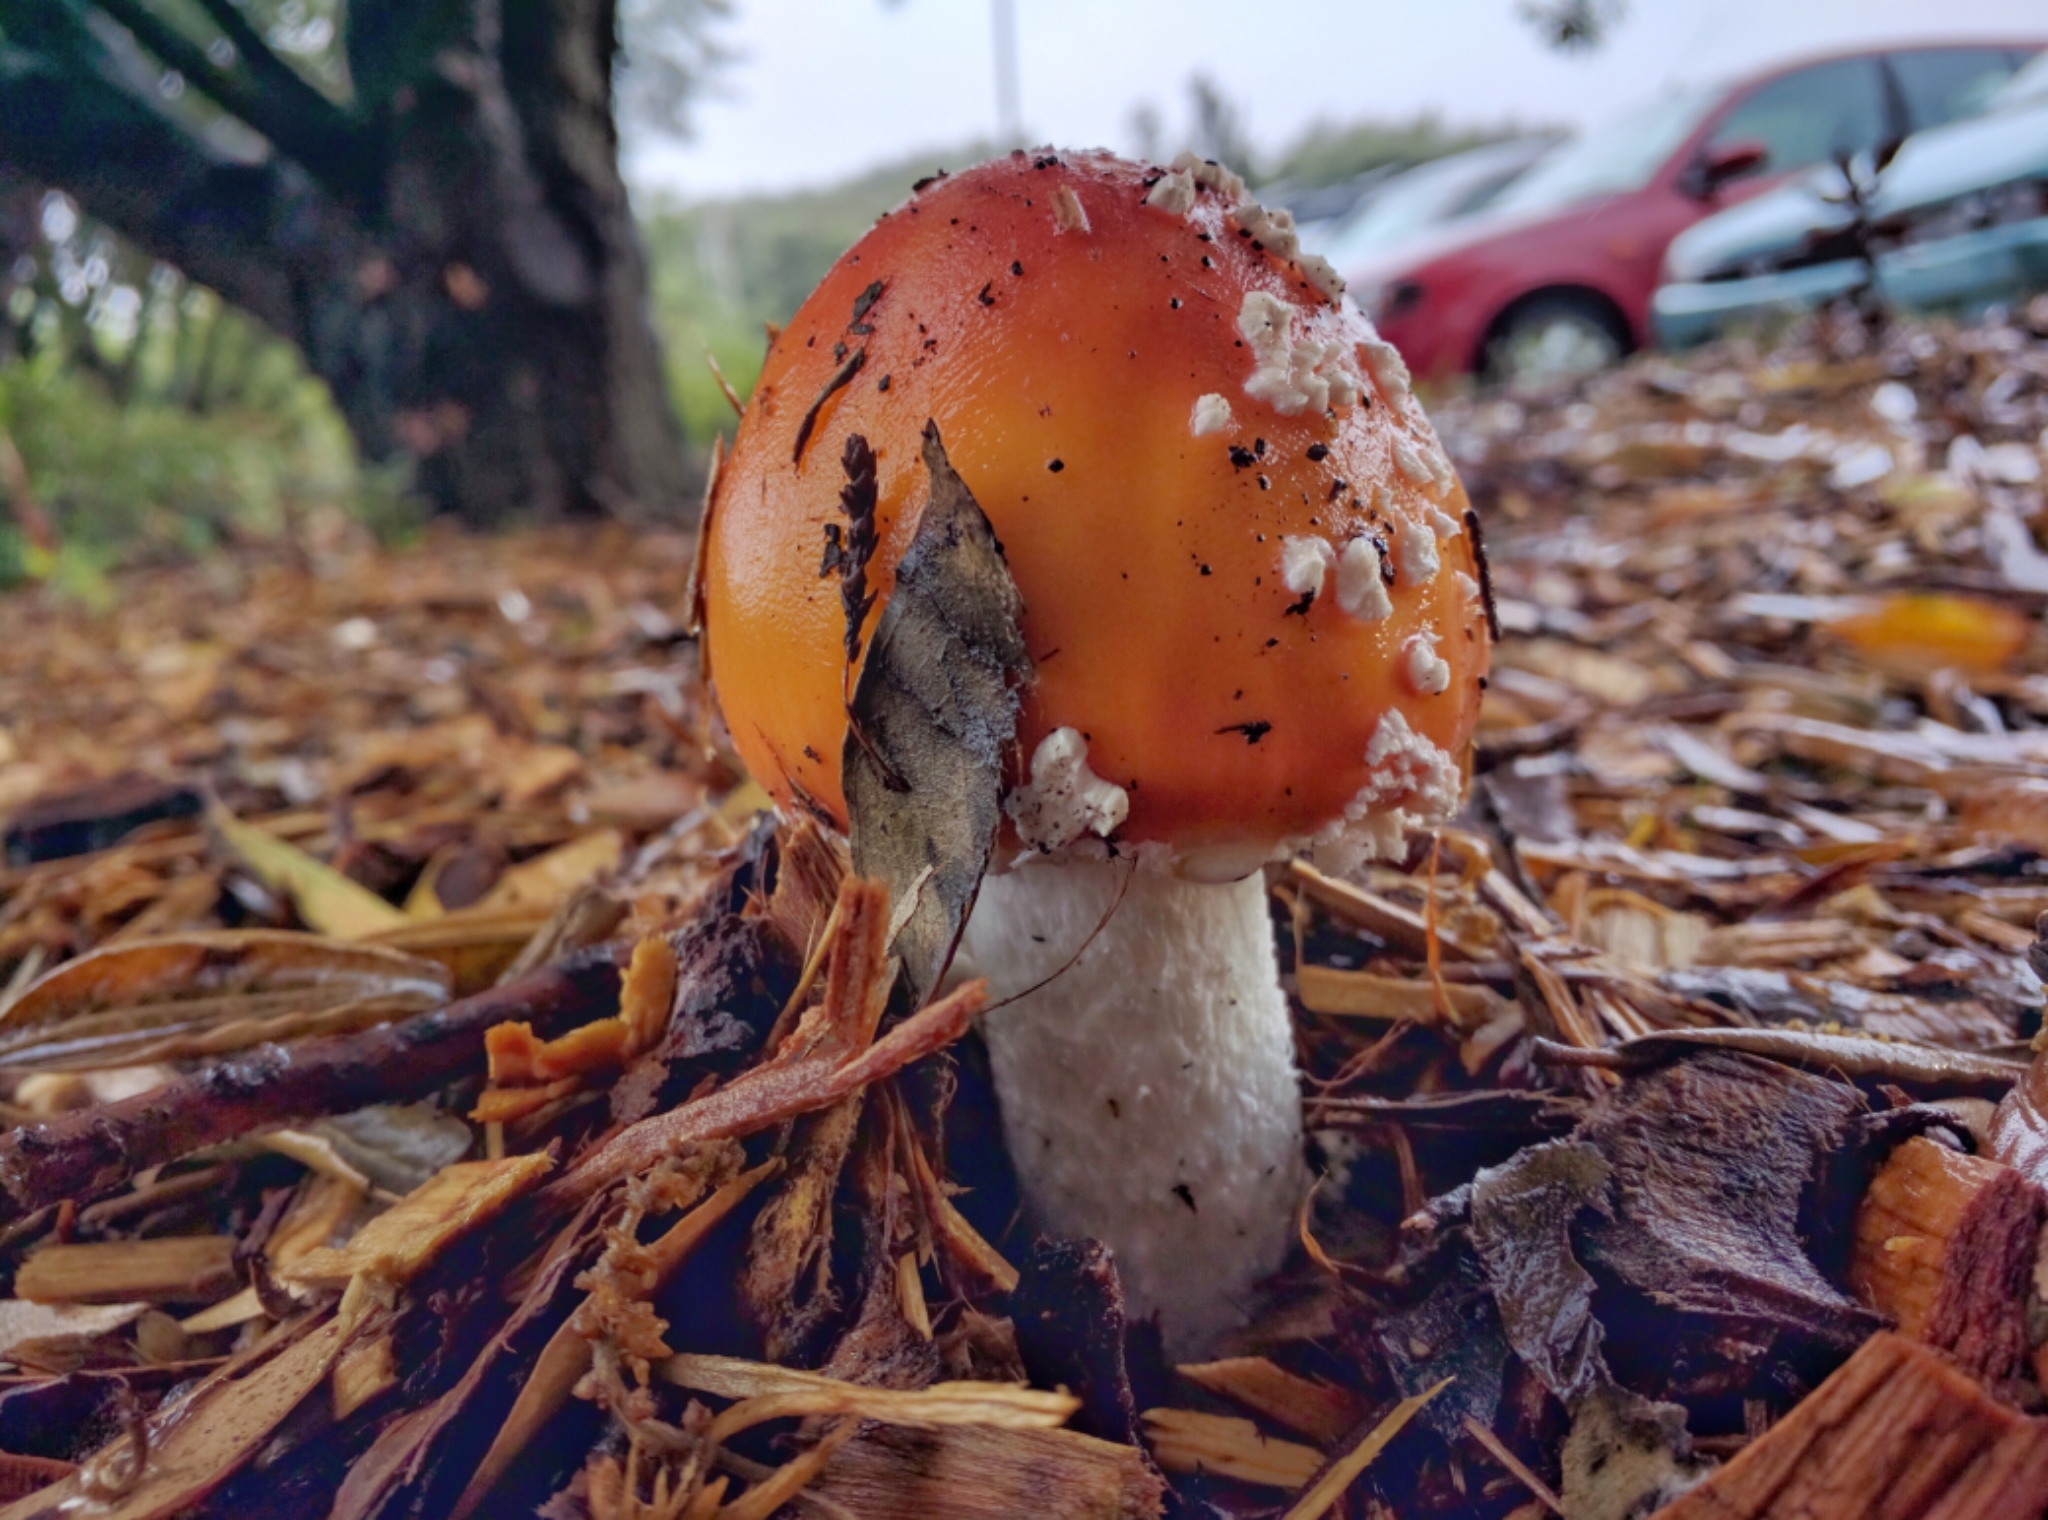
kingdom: Fungi
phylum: Basidiomycota
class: Agaricomycetes
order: Agaricales
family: Amanitaceae
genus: Amanita
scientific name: Amanita muscaria
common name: Fly agaric
